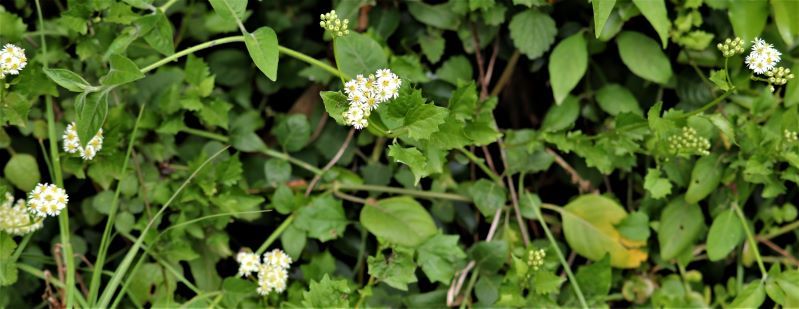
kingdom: Plantae
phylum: Tracheophyta
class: Magnoliopsida
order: Asterales
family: Asteraceae
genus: Microglossa
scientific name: Microglossa mespilifolia
